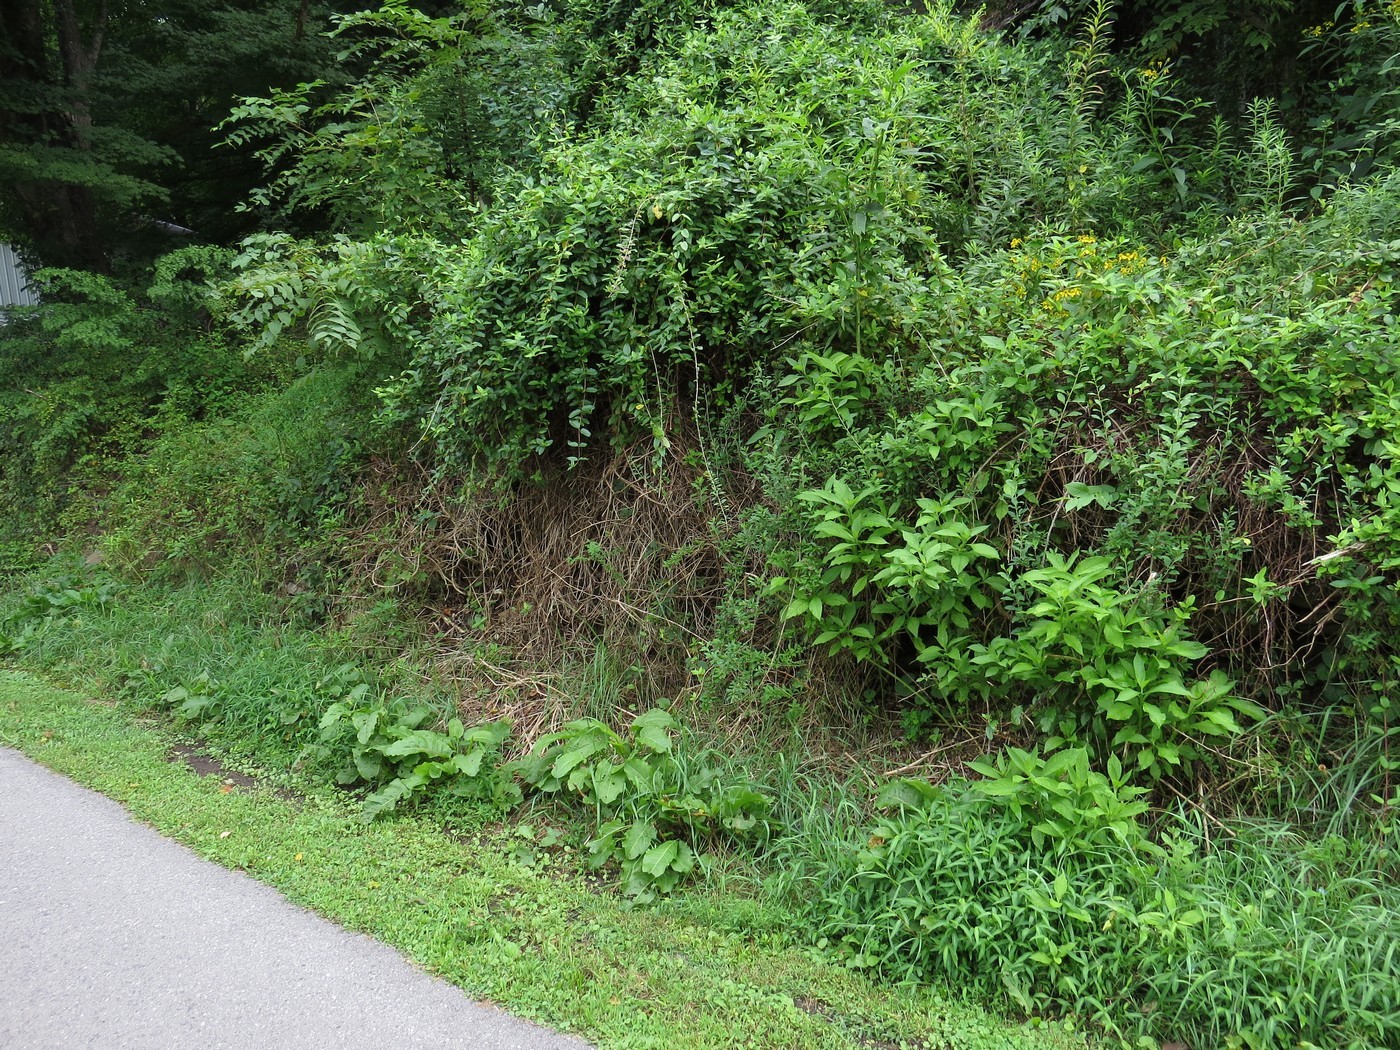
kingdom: Plantae
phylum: Tracheophyta
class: Magnoliopsida
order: Solanales
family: Solanaceae
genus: Lycium
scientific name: Lycium barbarum
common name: Duke of argyll's teaplant
